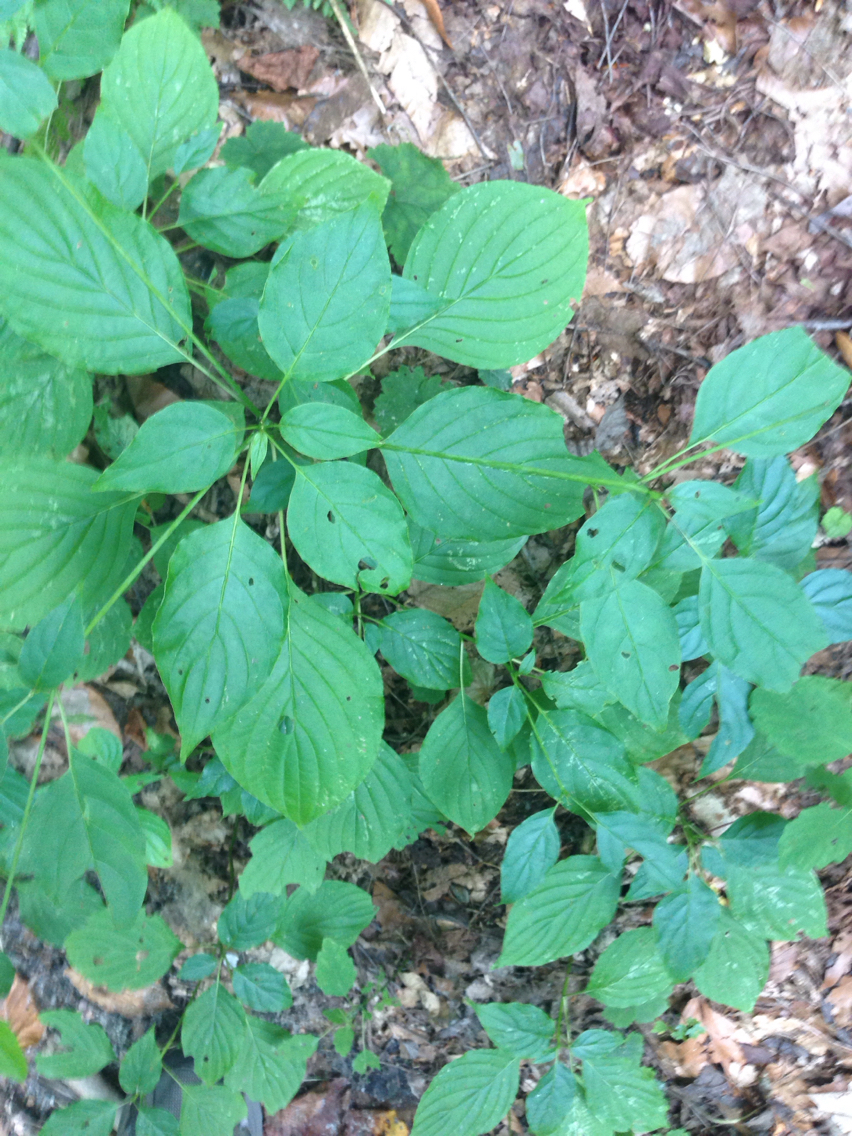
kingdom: Plantae
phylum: Tracheophyta
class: Magnoliopsida
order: Cornales
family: Cornaceae
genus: Cornus
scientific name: Cornus alternifolia
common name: Pagoda dogwood
